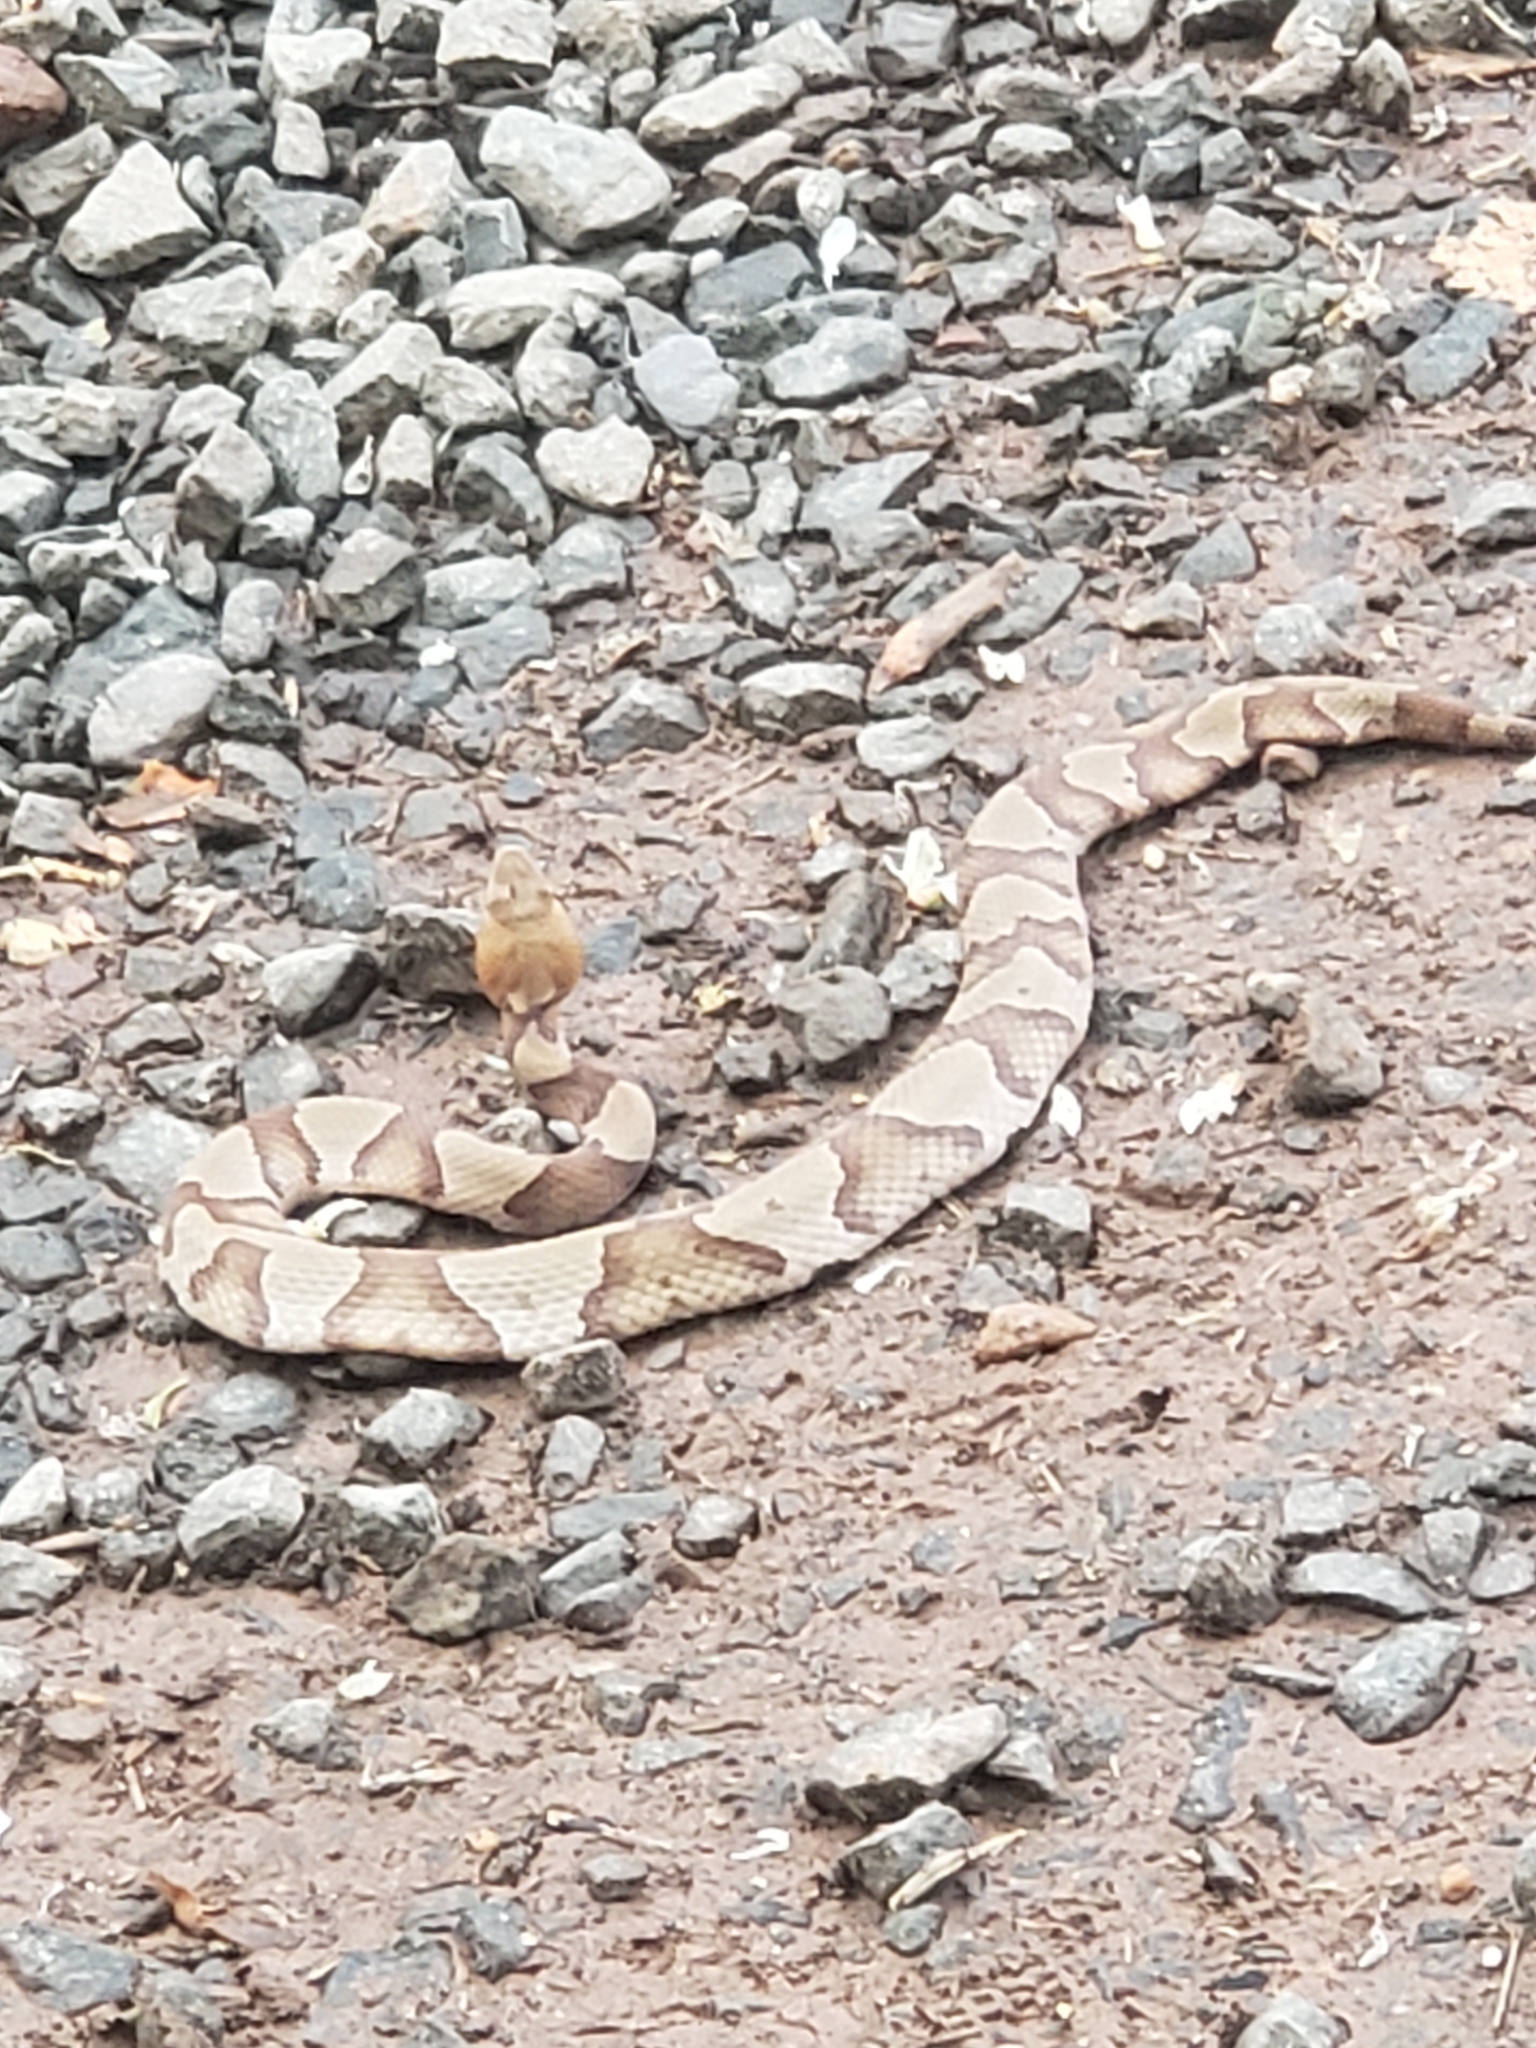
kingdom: Animalia
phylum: Chordata
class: Squamata
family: Viperidae
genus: Agkistrodon
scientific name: Agkistrodon contortrix
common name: Northern copperhead
